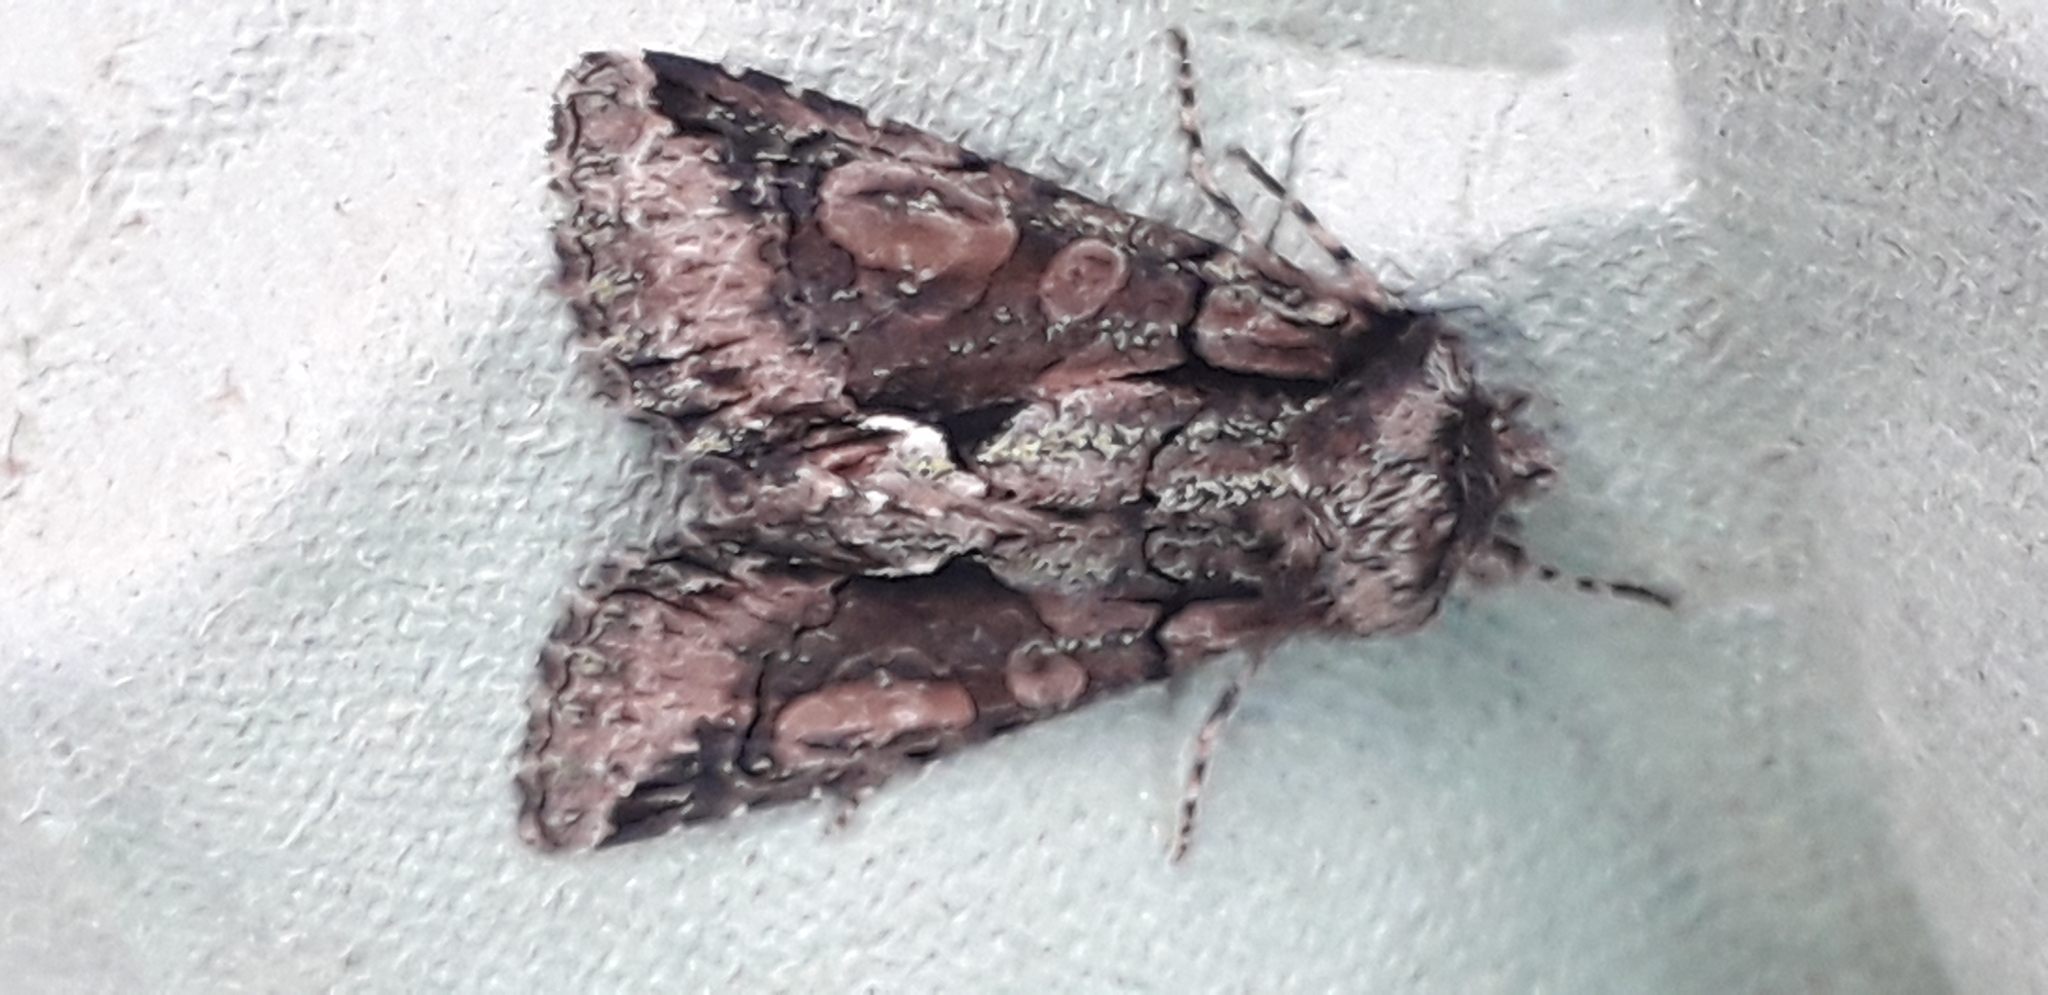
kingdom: Animalia
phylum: Arthropoda
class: Insecta
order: Lepidoptera
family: Noctuidae
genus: Allophyes
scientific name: Allophyes oxyacanthae
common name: Green-brindled crescent
